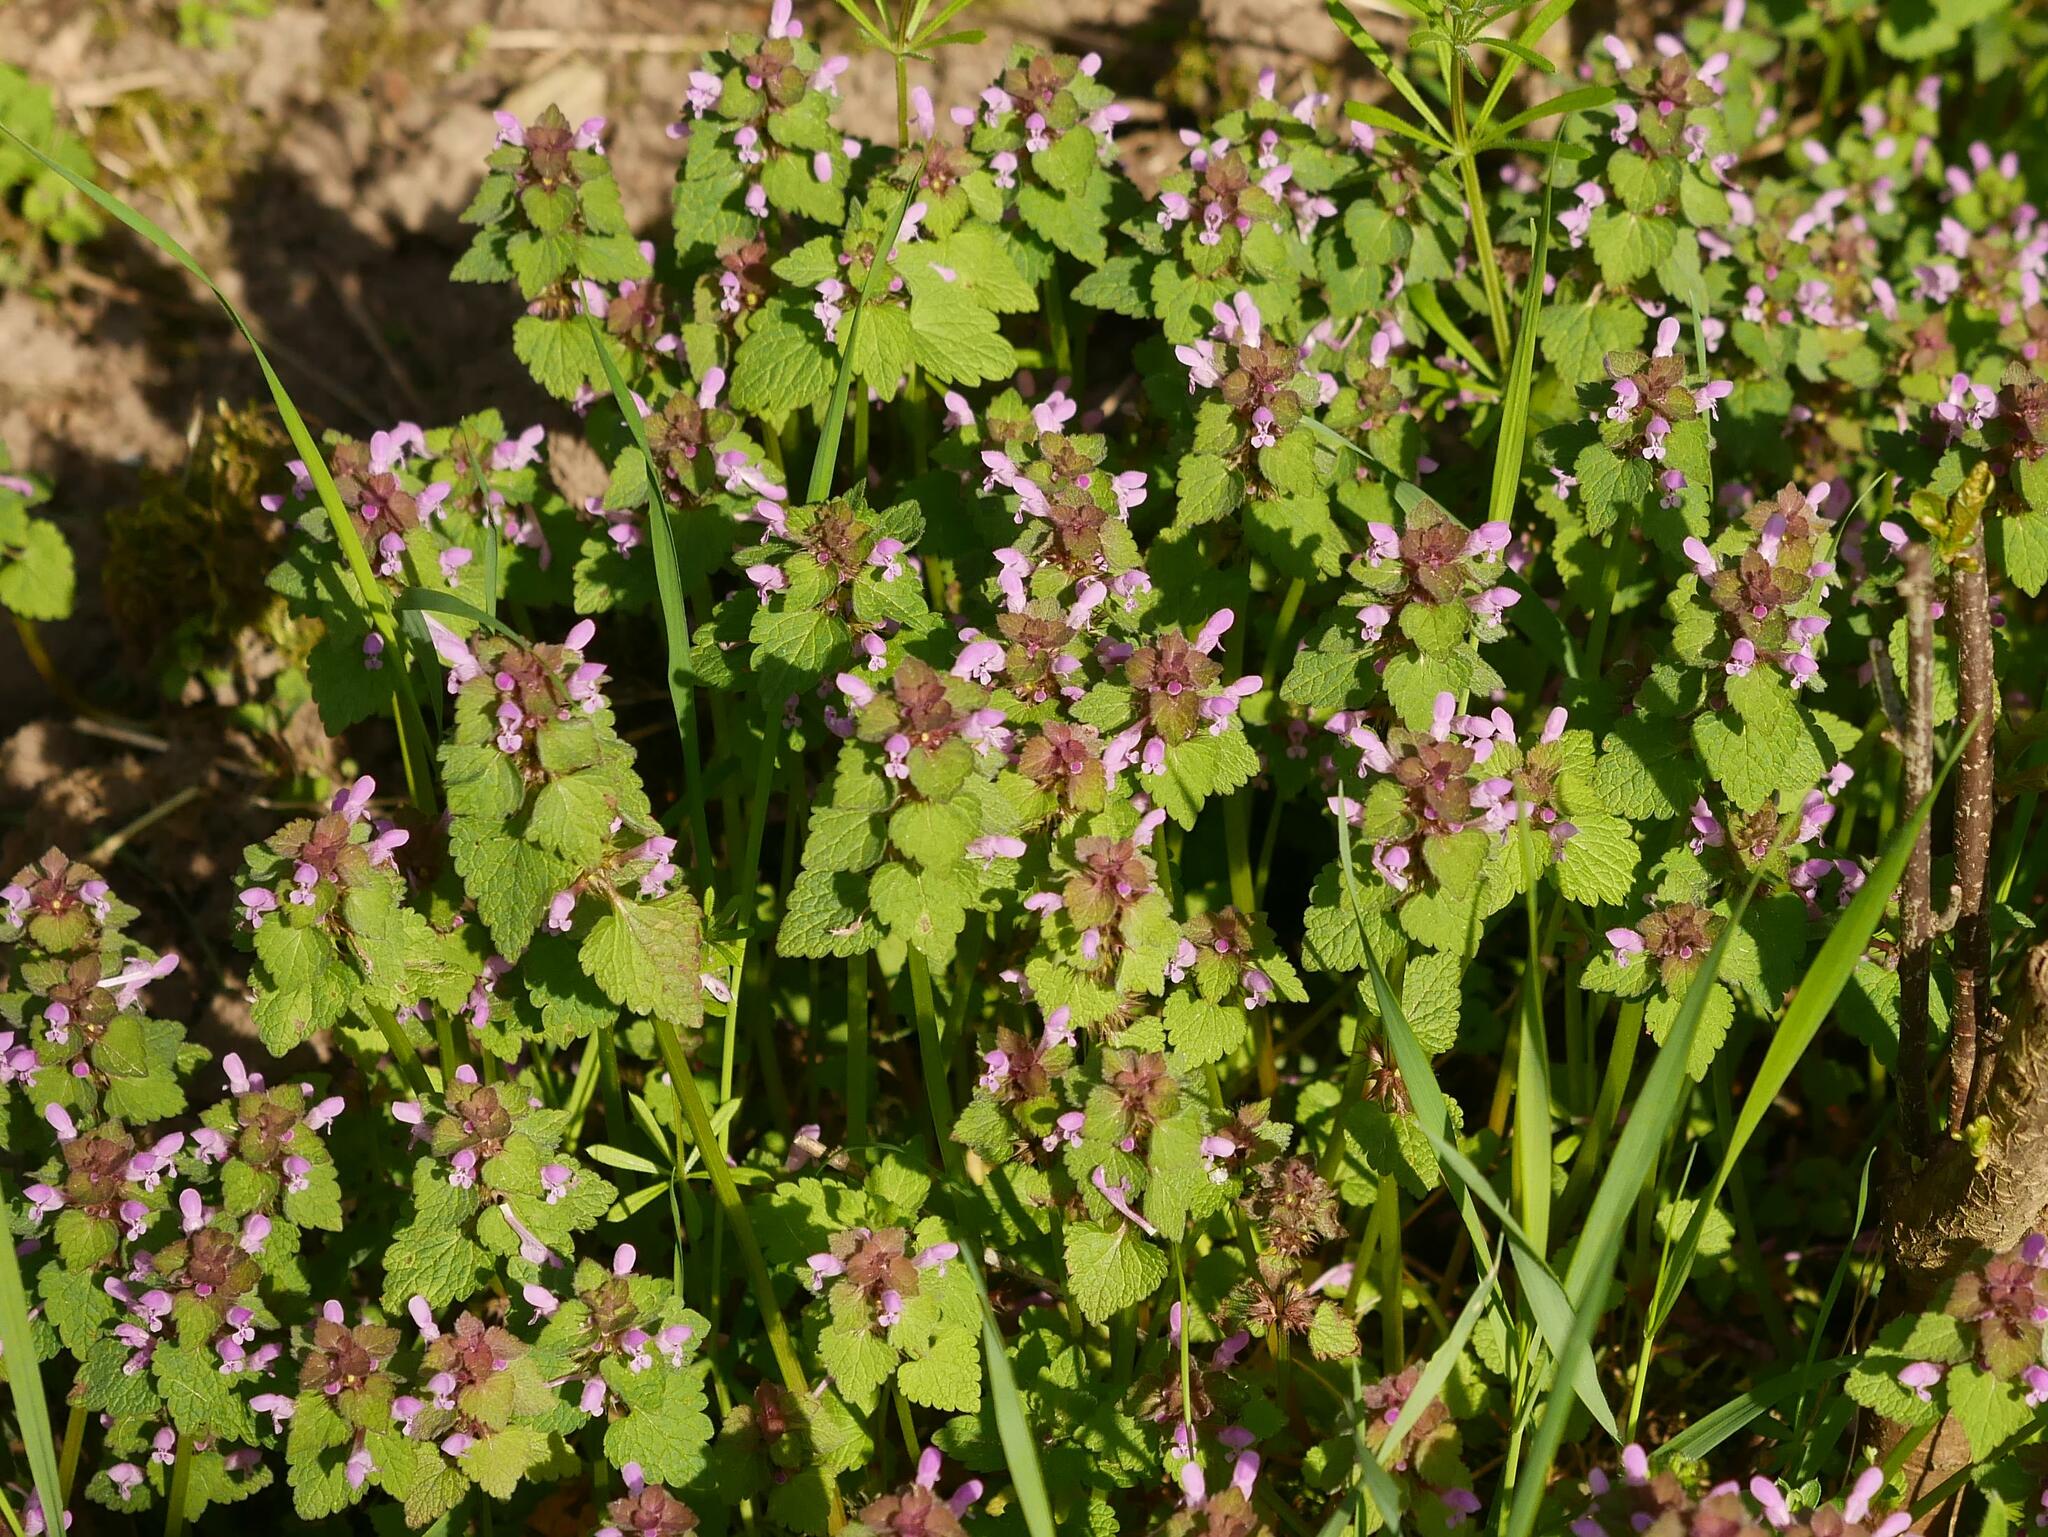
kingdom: Plantae
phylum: Tracheophyta
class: Magnoliopsida
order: Lamiales
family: Lamiaceae
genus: Lamium
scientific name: Lamium purpureum
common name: Red dead-nettle
